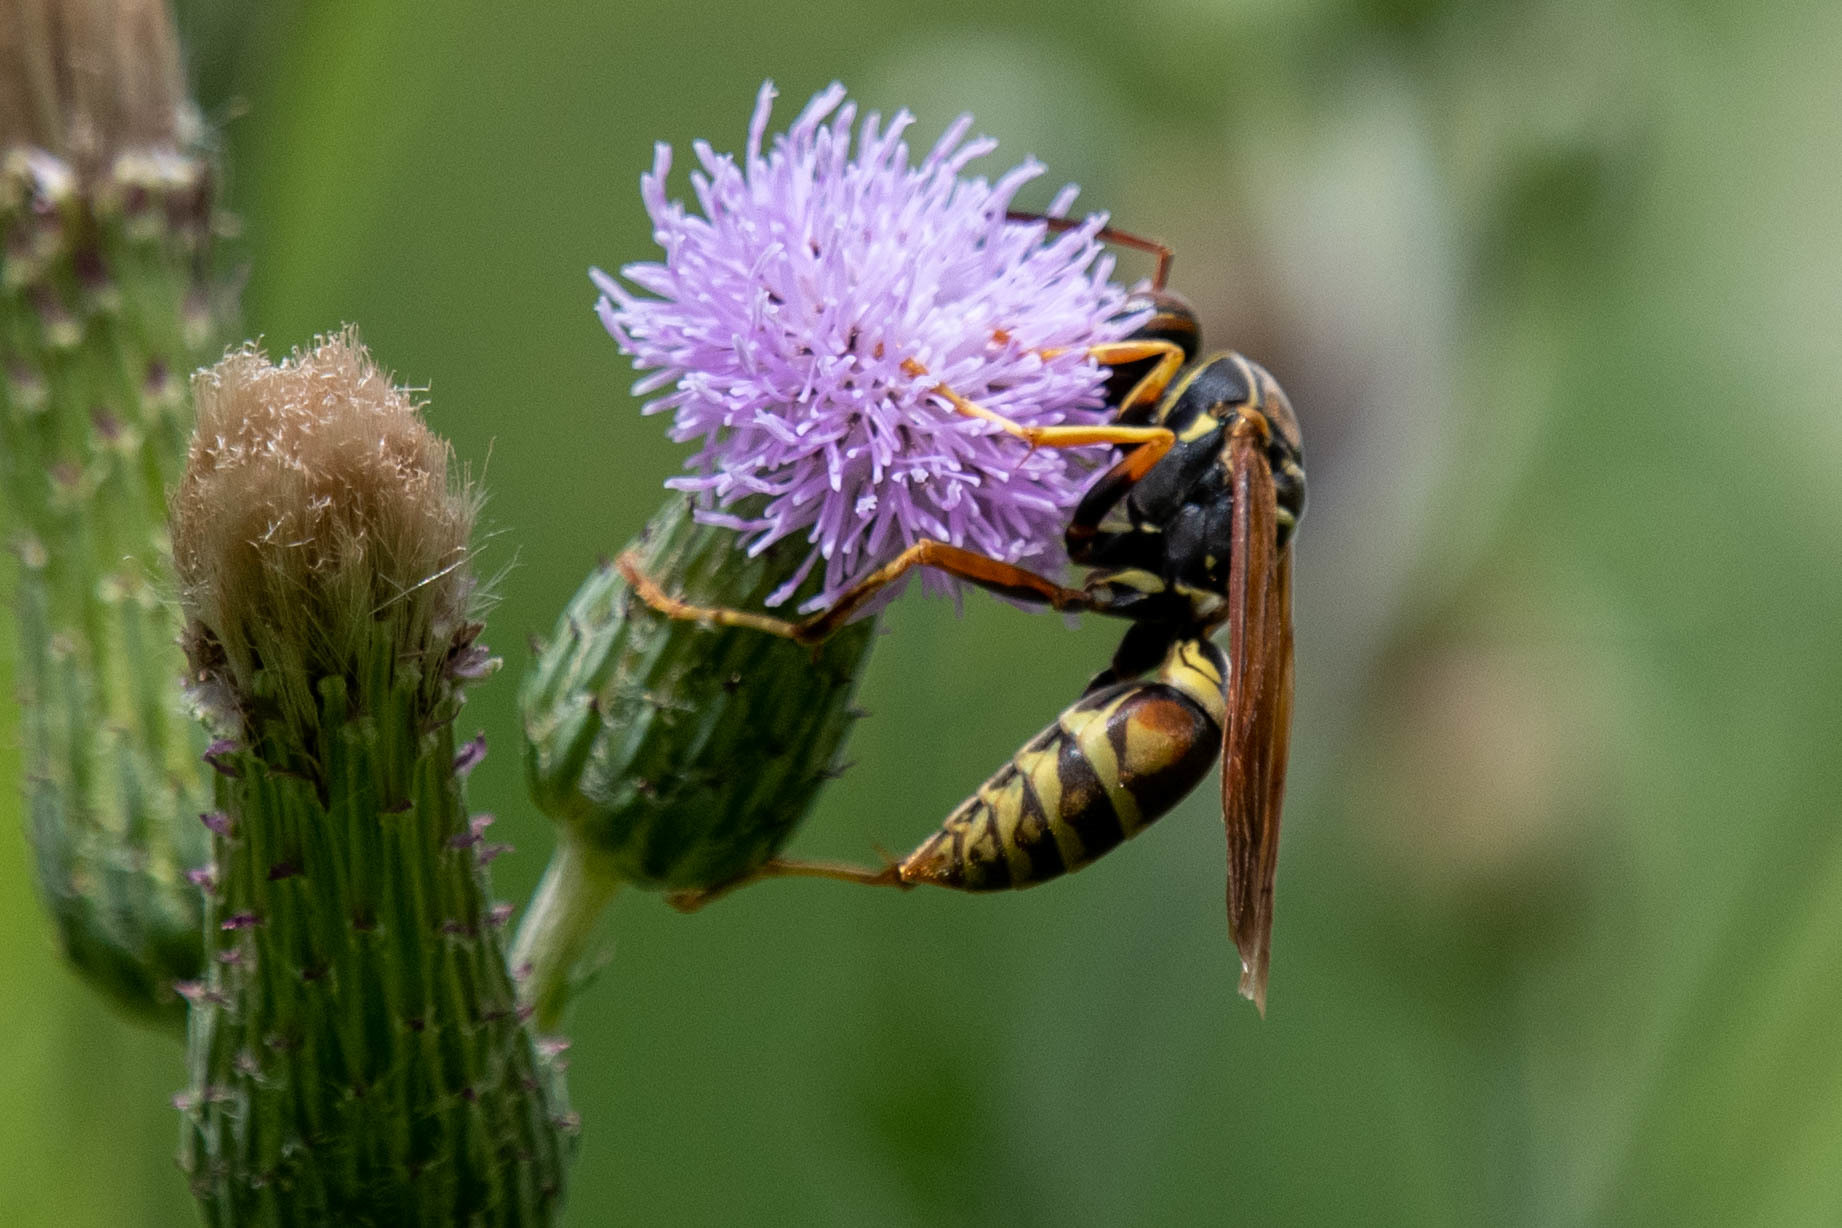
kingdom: Animalia
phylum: Arthropoda
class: Insecta
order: Hymenoptera
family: Eumenidae
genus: Polistes
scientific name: Polistes fuscatus
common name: Dark paper wasp
